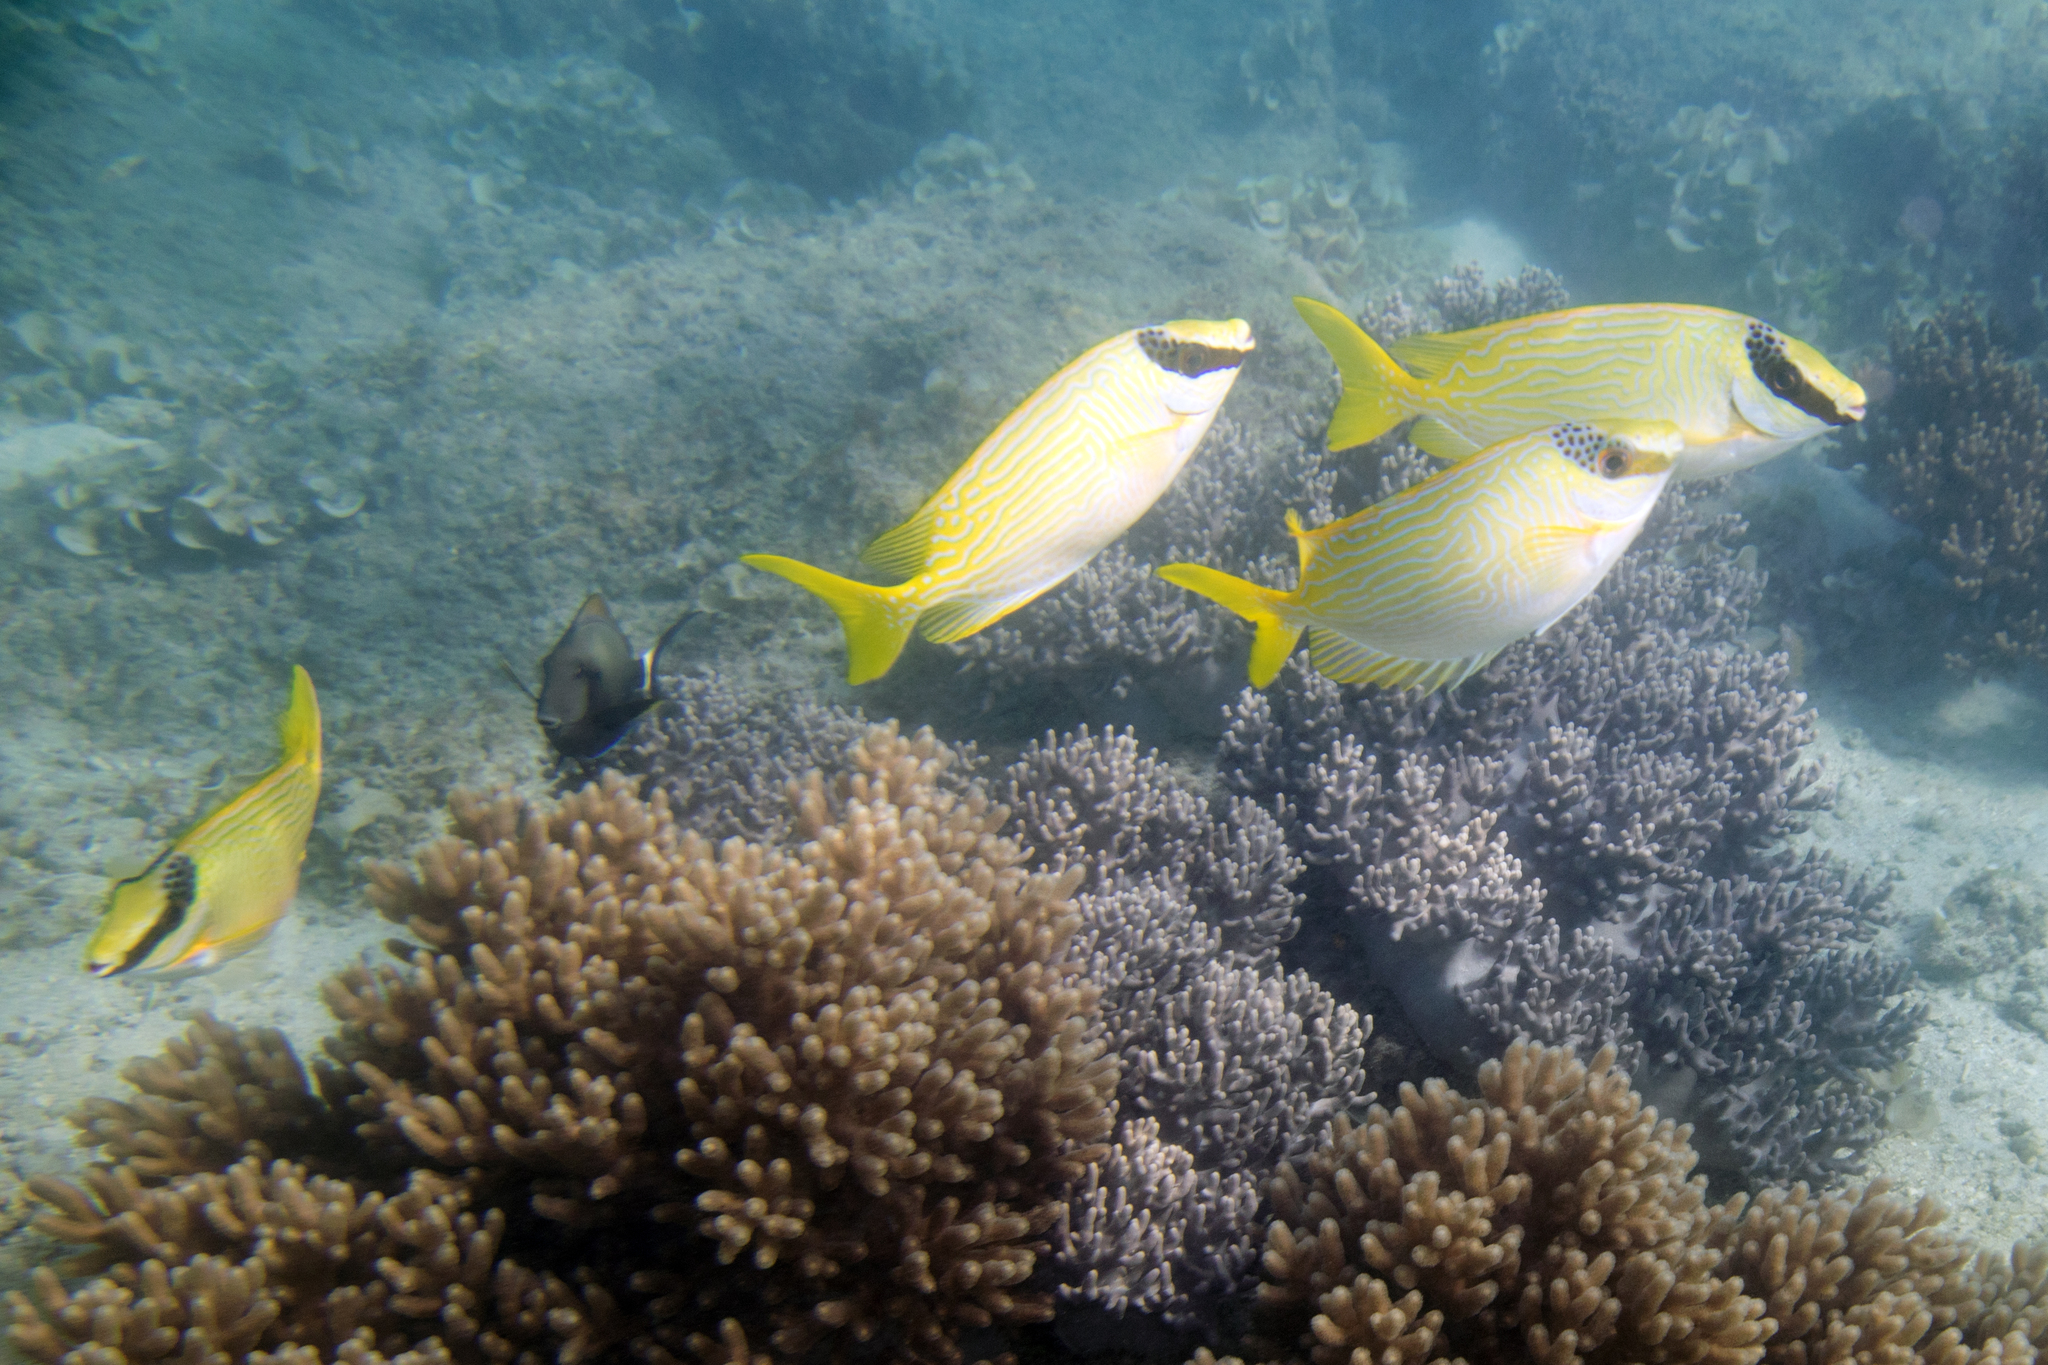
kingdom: Animalia
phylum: Chordata
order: Perciformes
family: Siganidae
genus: Siganus
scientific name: Siganus puellus
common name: Masked rabbitfish
